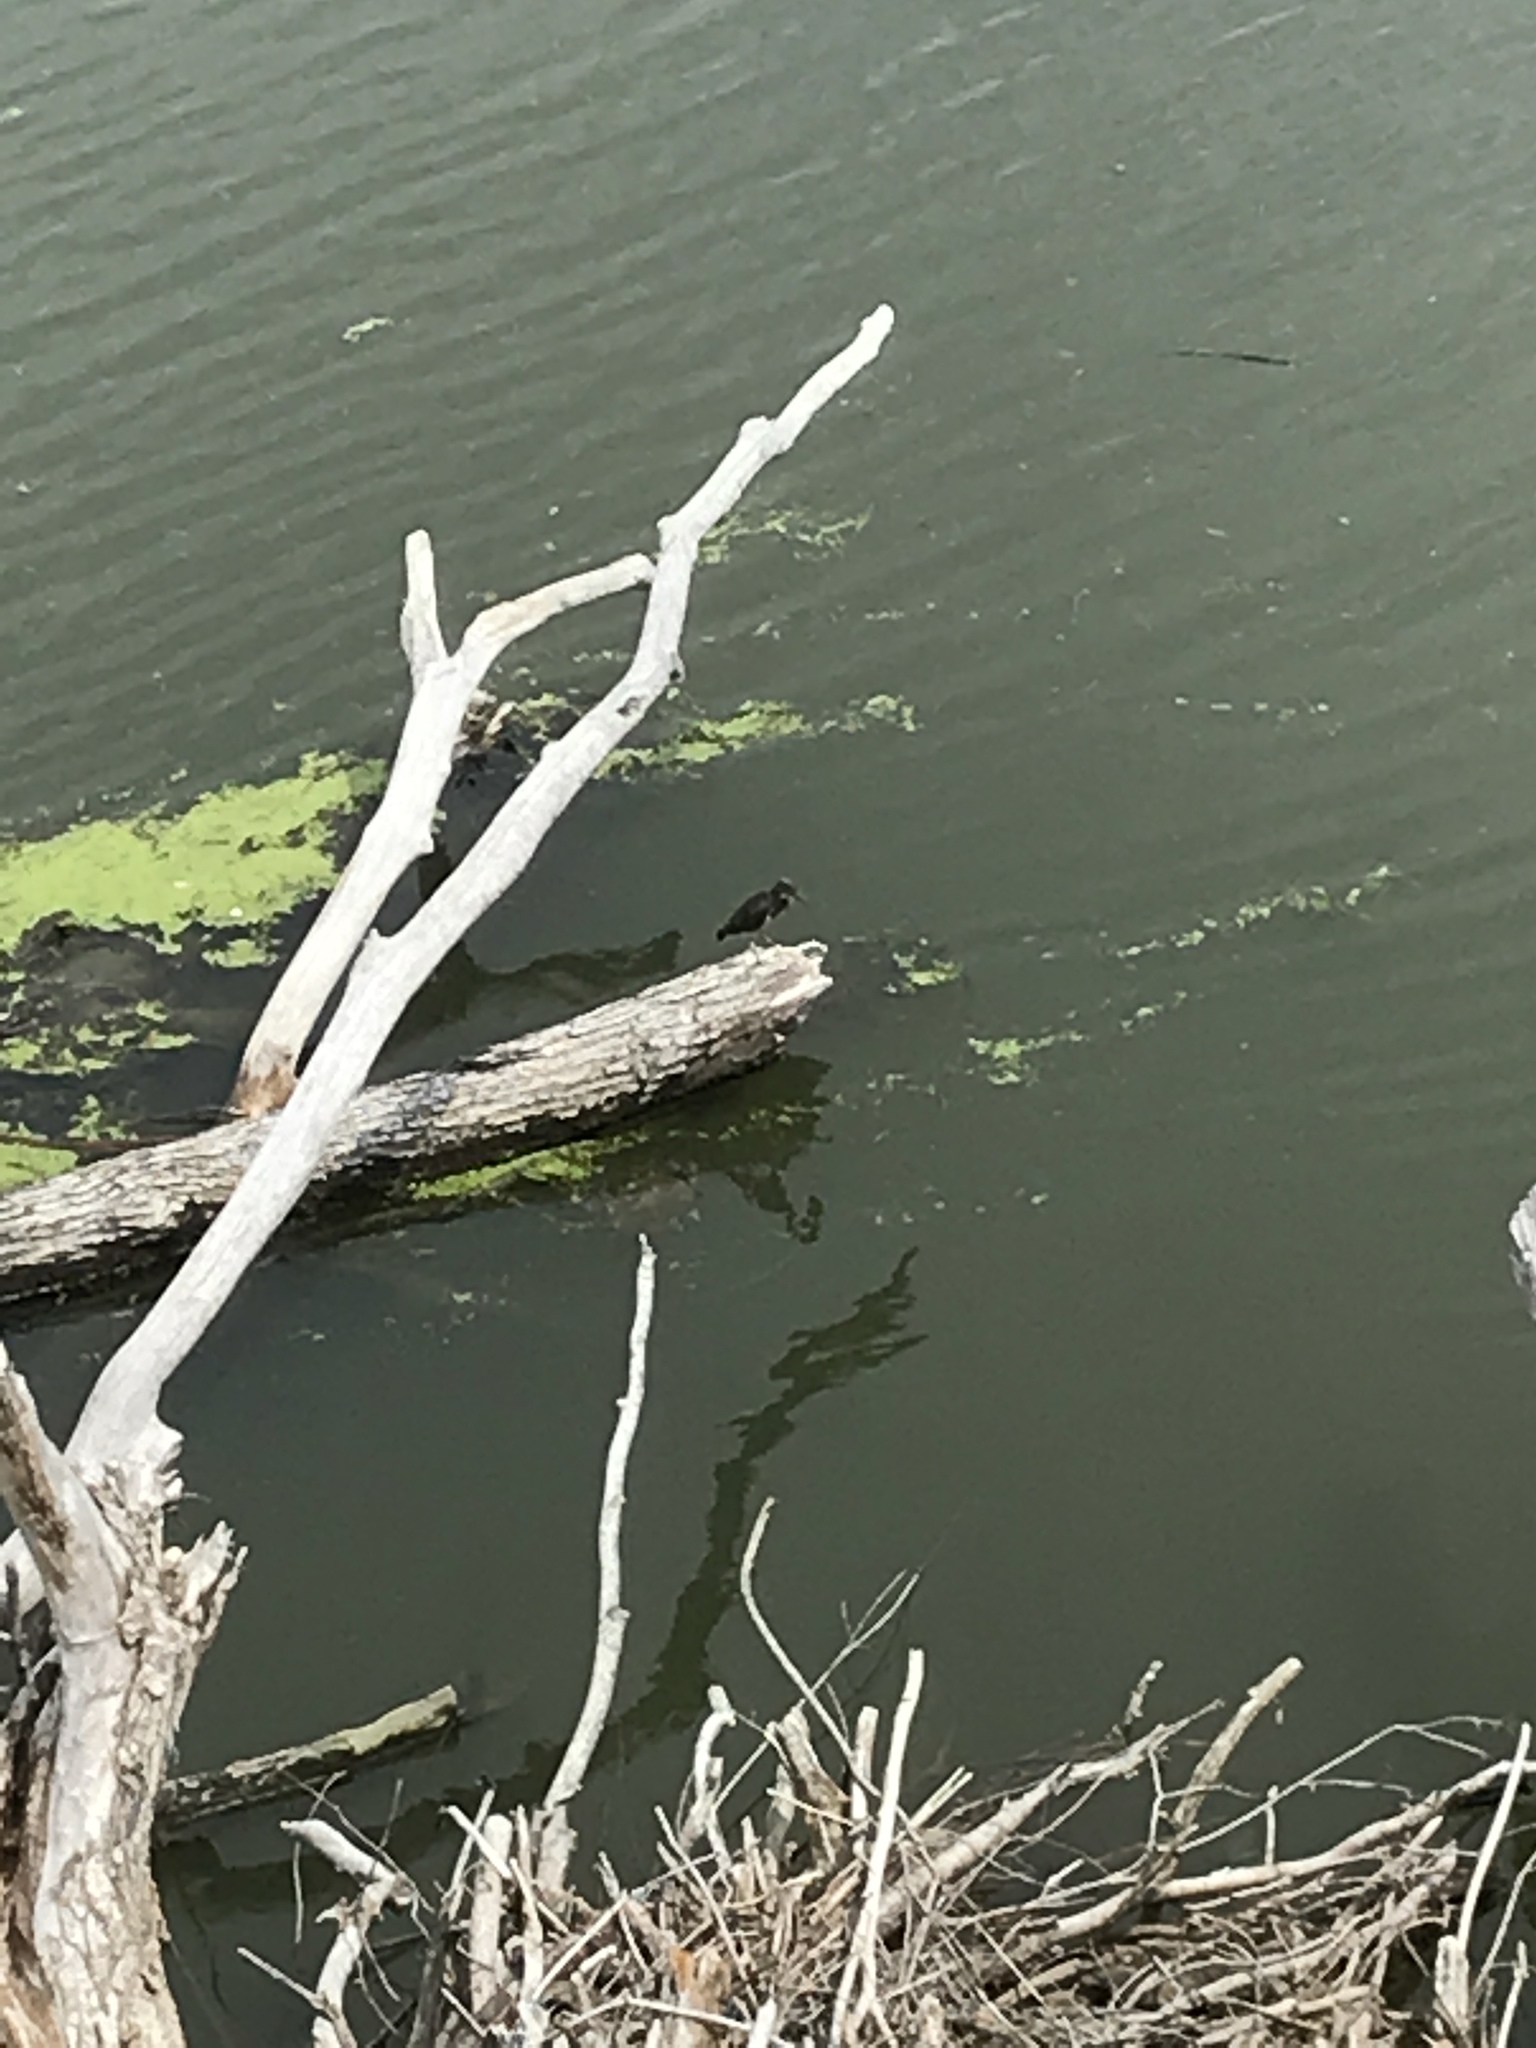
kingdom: Animalia
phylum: Chordata
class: Aves
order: Pelecaniformes
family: Ardeidae
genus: Butorides
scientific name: Butorides virescens
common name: Green heron
